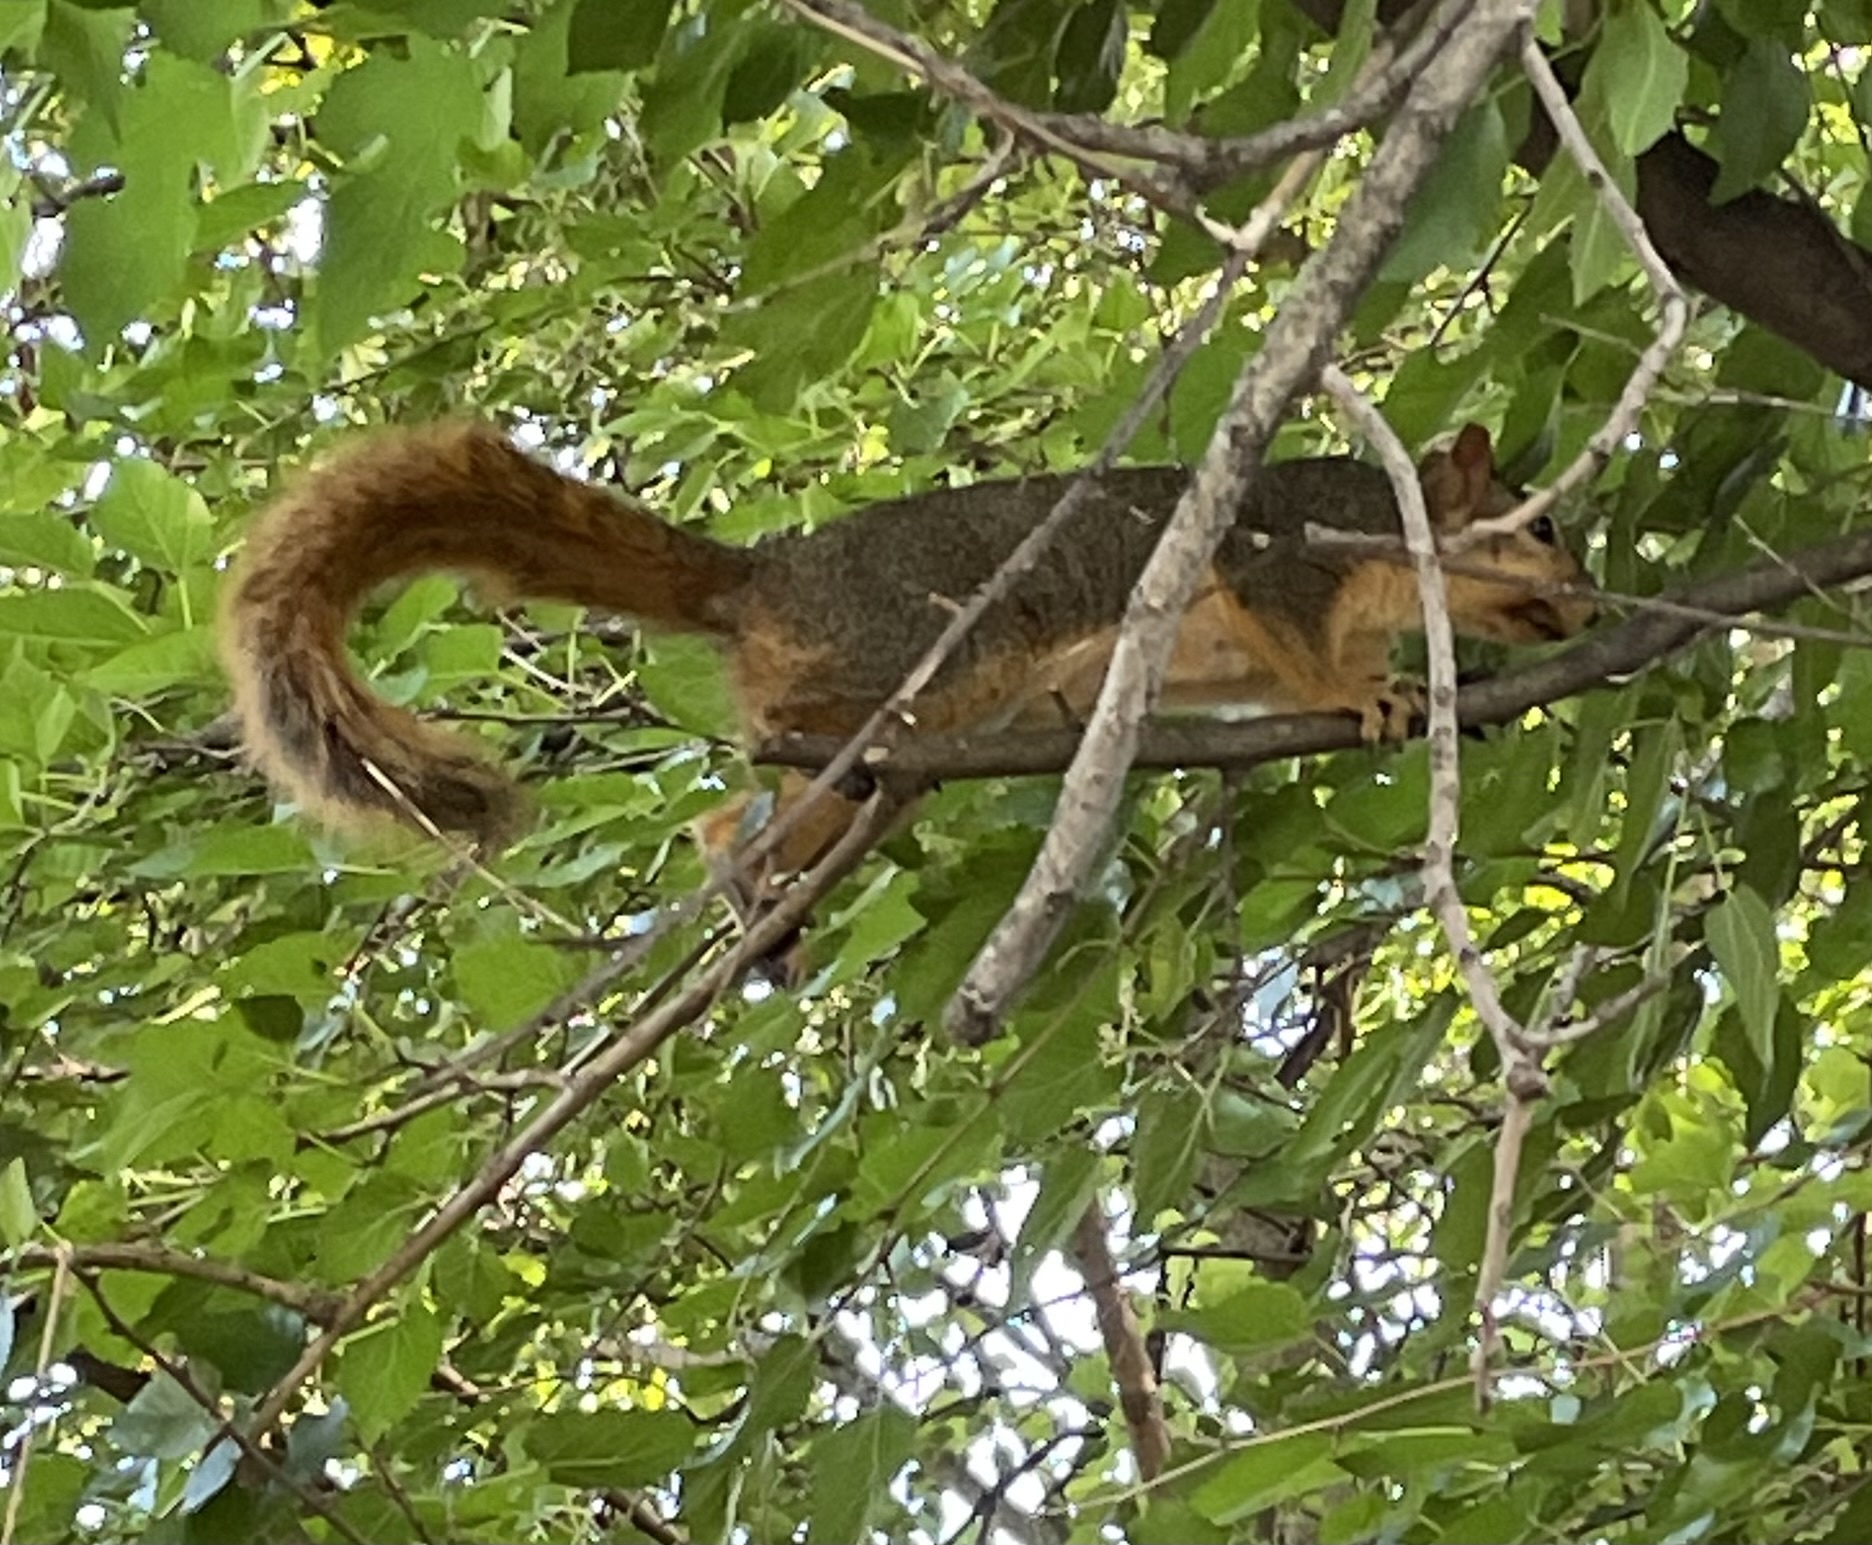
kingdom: Animalia
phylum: Chordata
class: Mammalia
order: Rodentia
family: Sciuridae
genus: Sciurus
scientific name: Sciurus niger
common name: Fox squirrel
